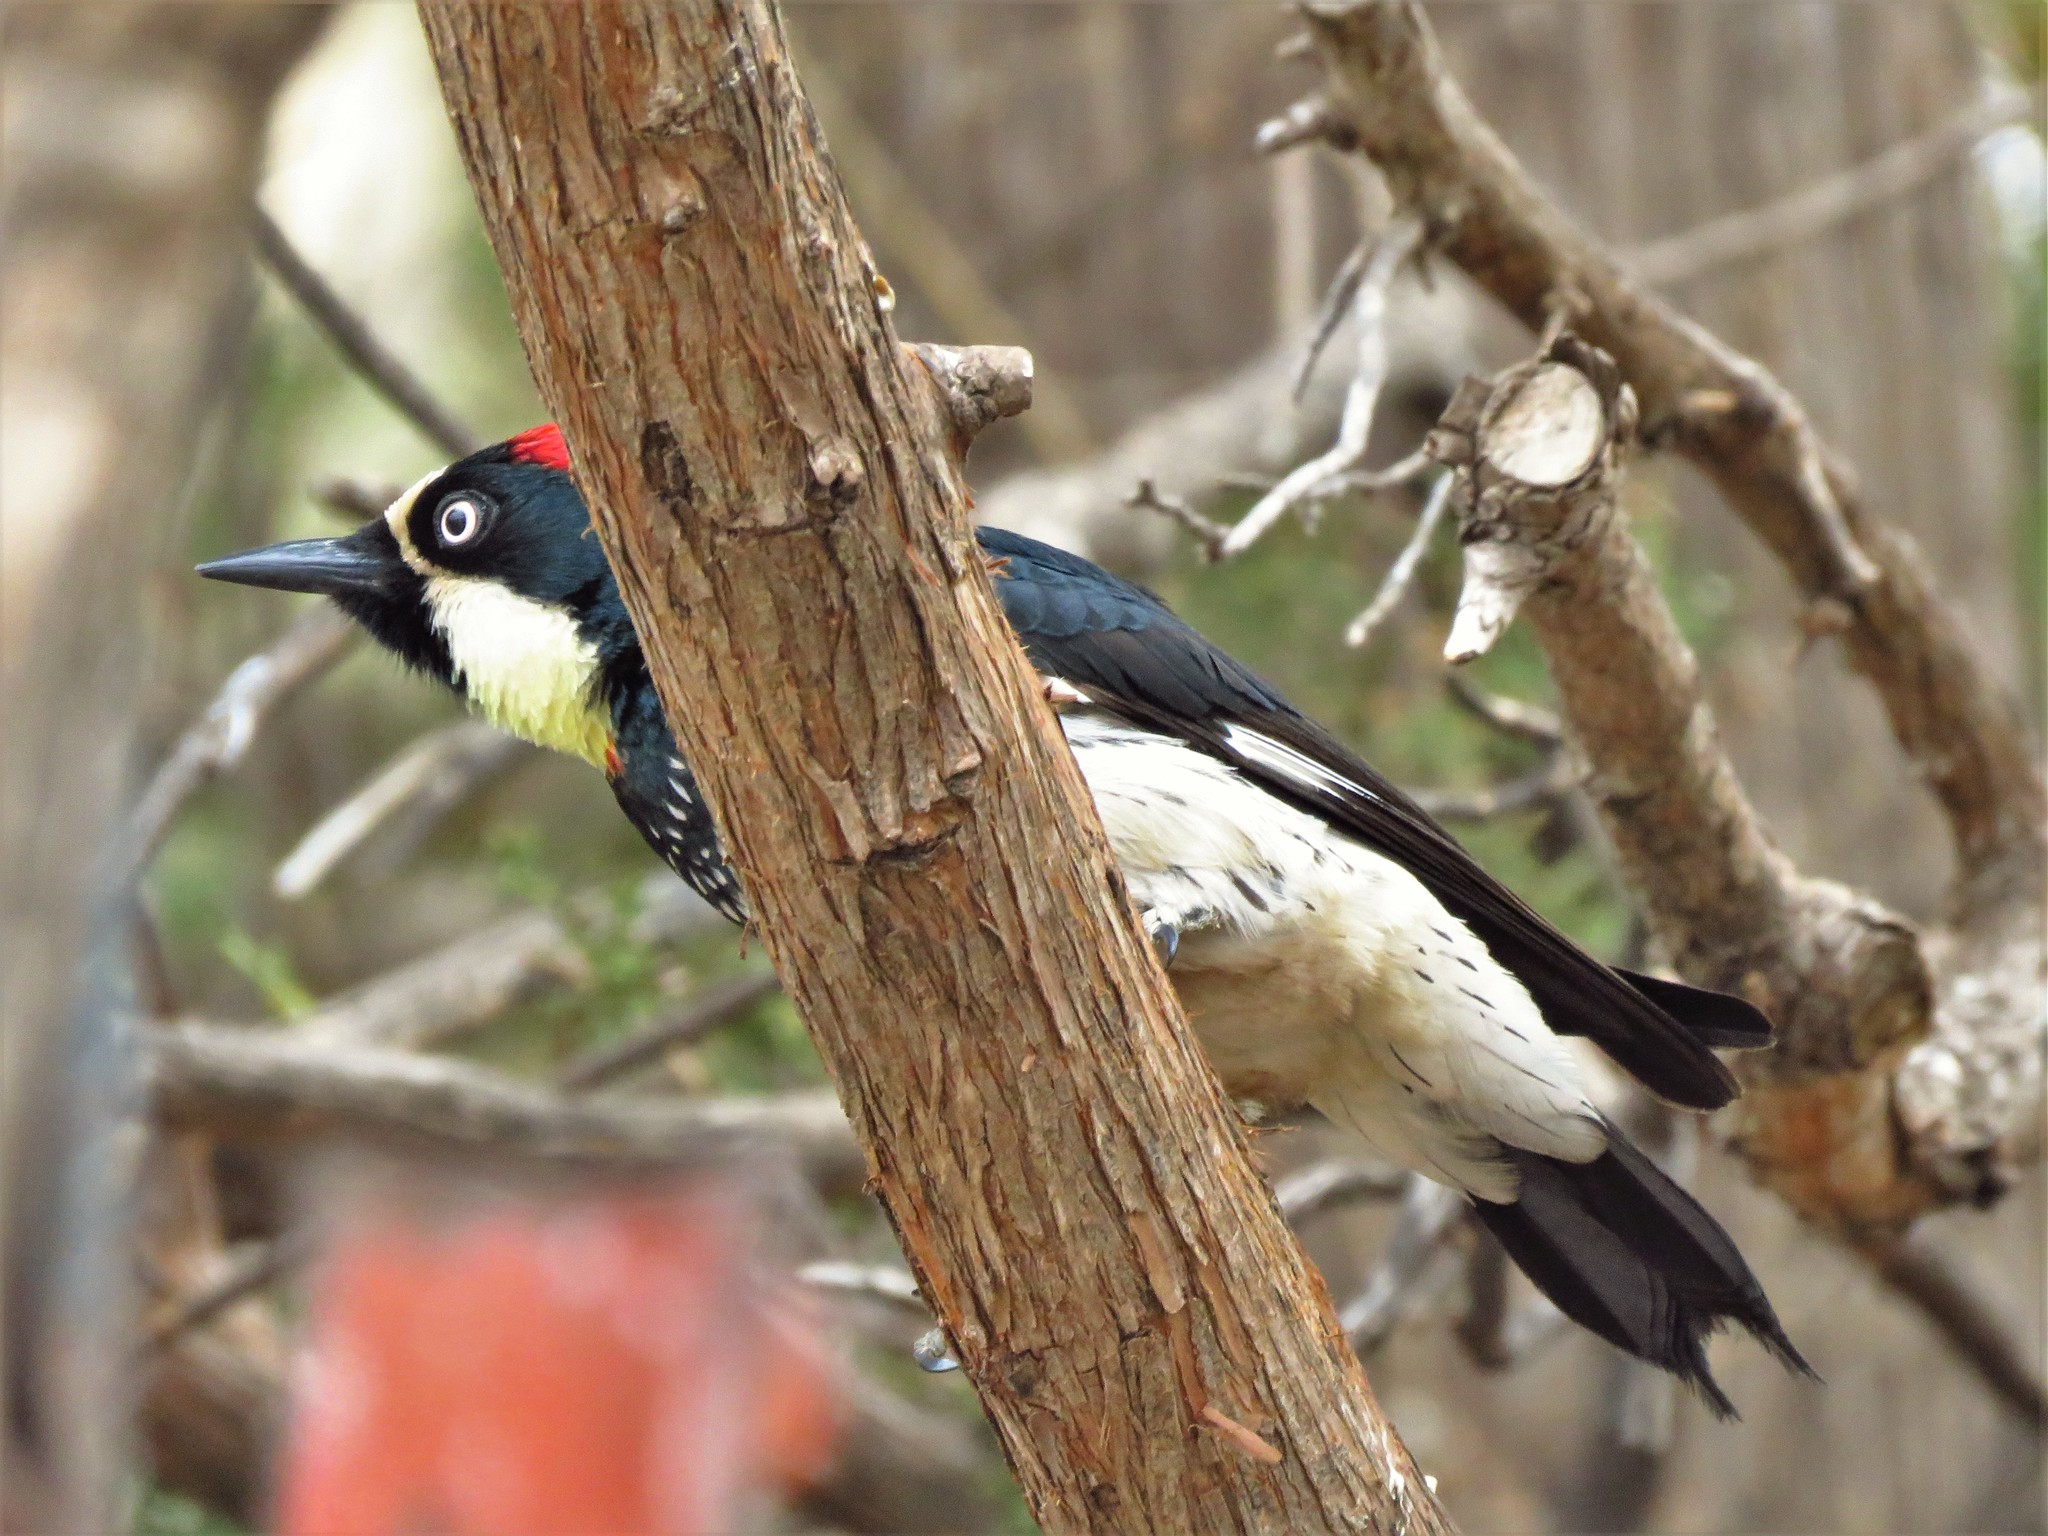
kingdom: Animalia
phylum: Chordata
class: Aves
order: Piciformes
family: Picidae
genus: Melanerpes
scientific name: Melanerpes formicivorus
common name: Acorn woodpecker
